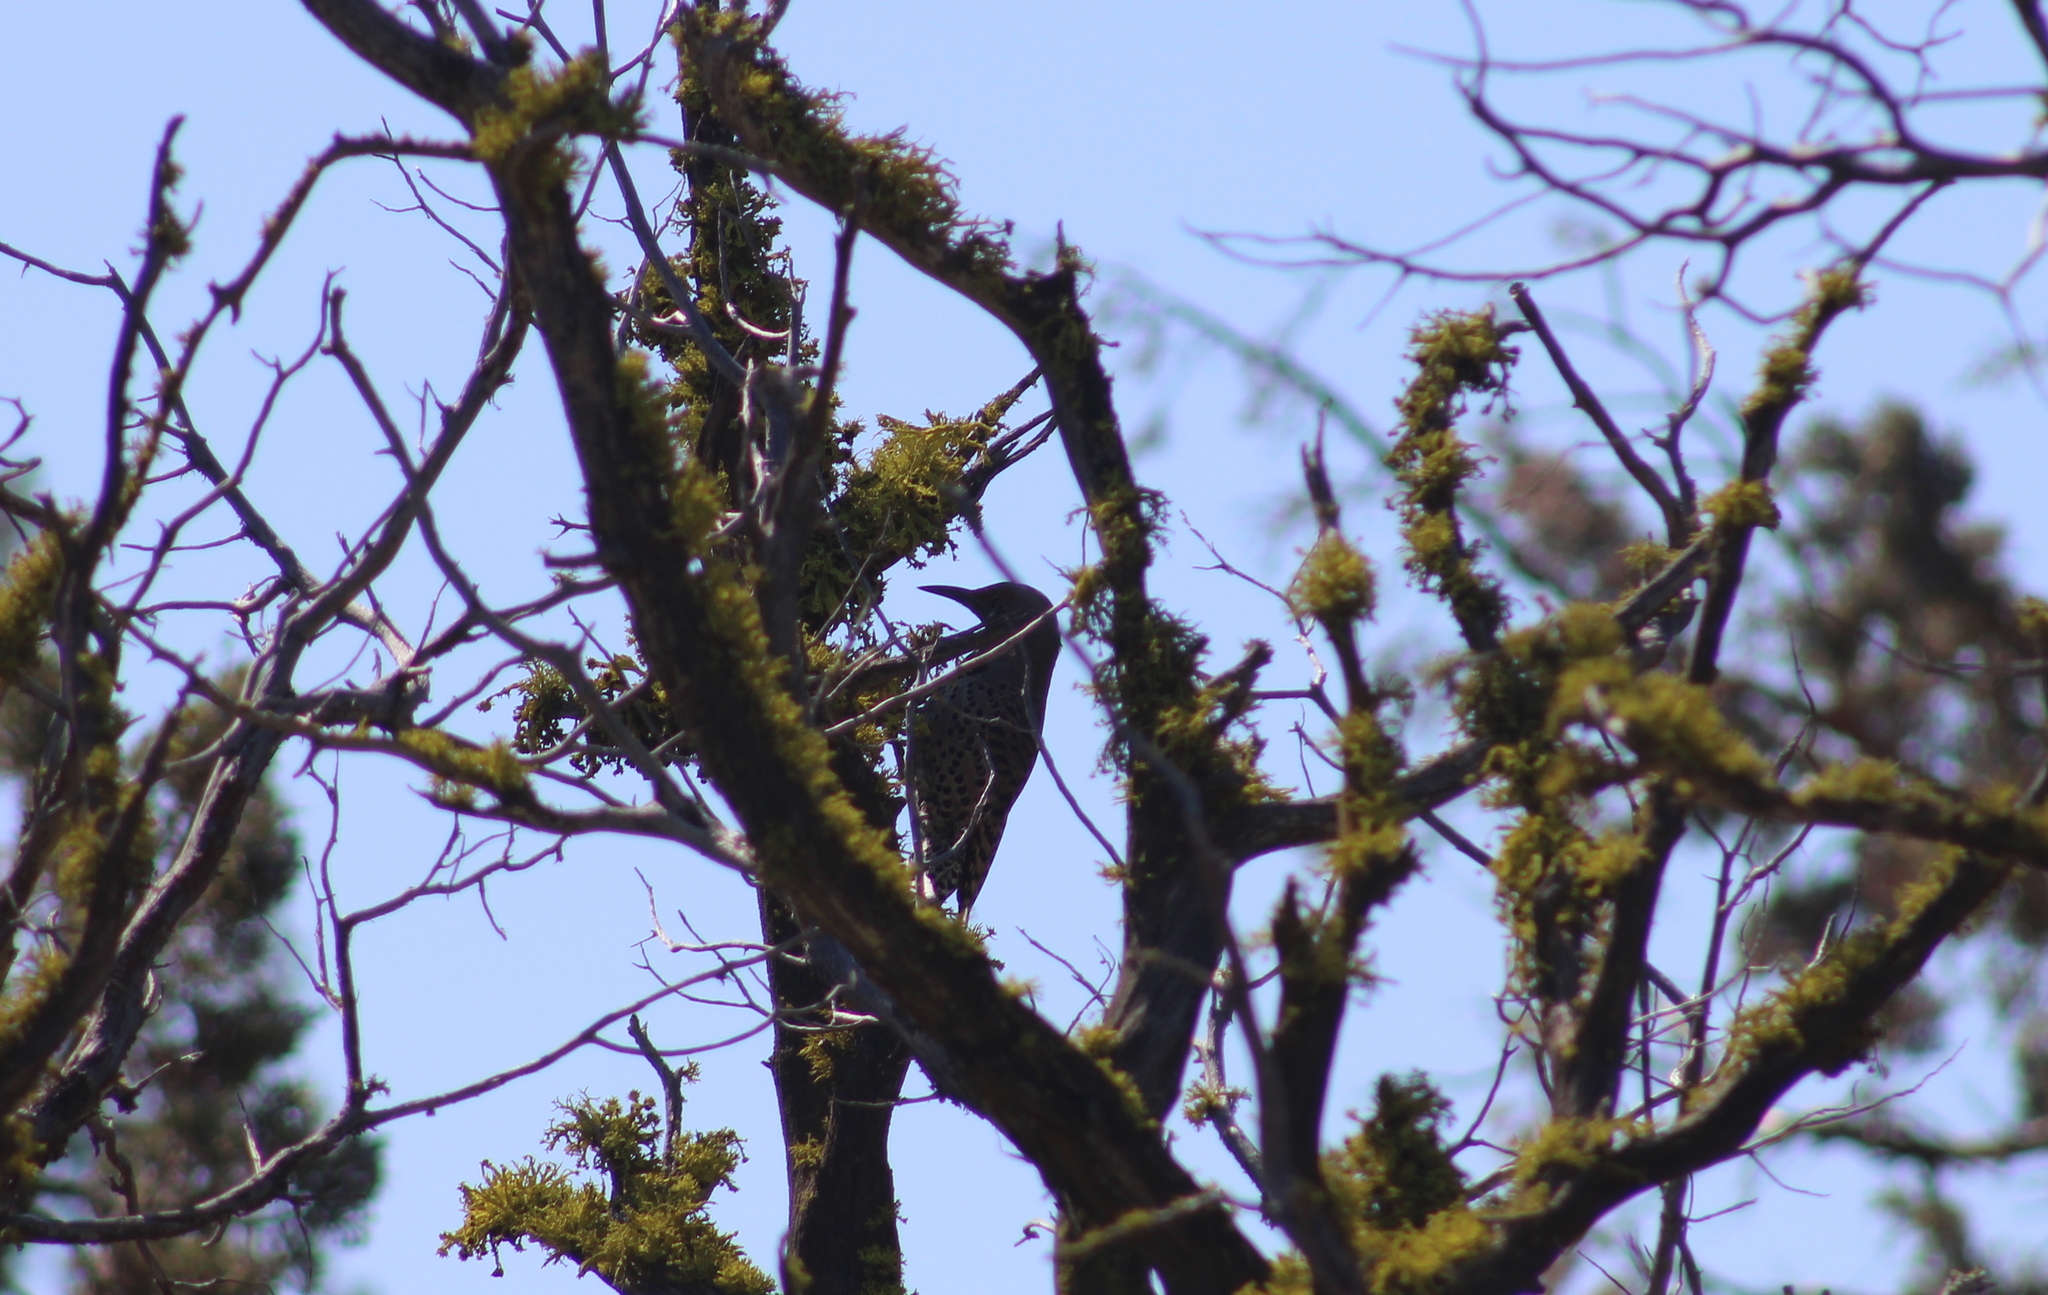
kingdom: Animalia
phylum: Chordata
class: Aves
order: Piciformes
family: Picidae
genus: Colaptes
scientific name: Colaptes auratus
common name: Northern flicker
